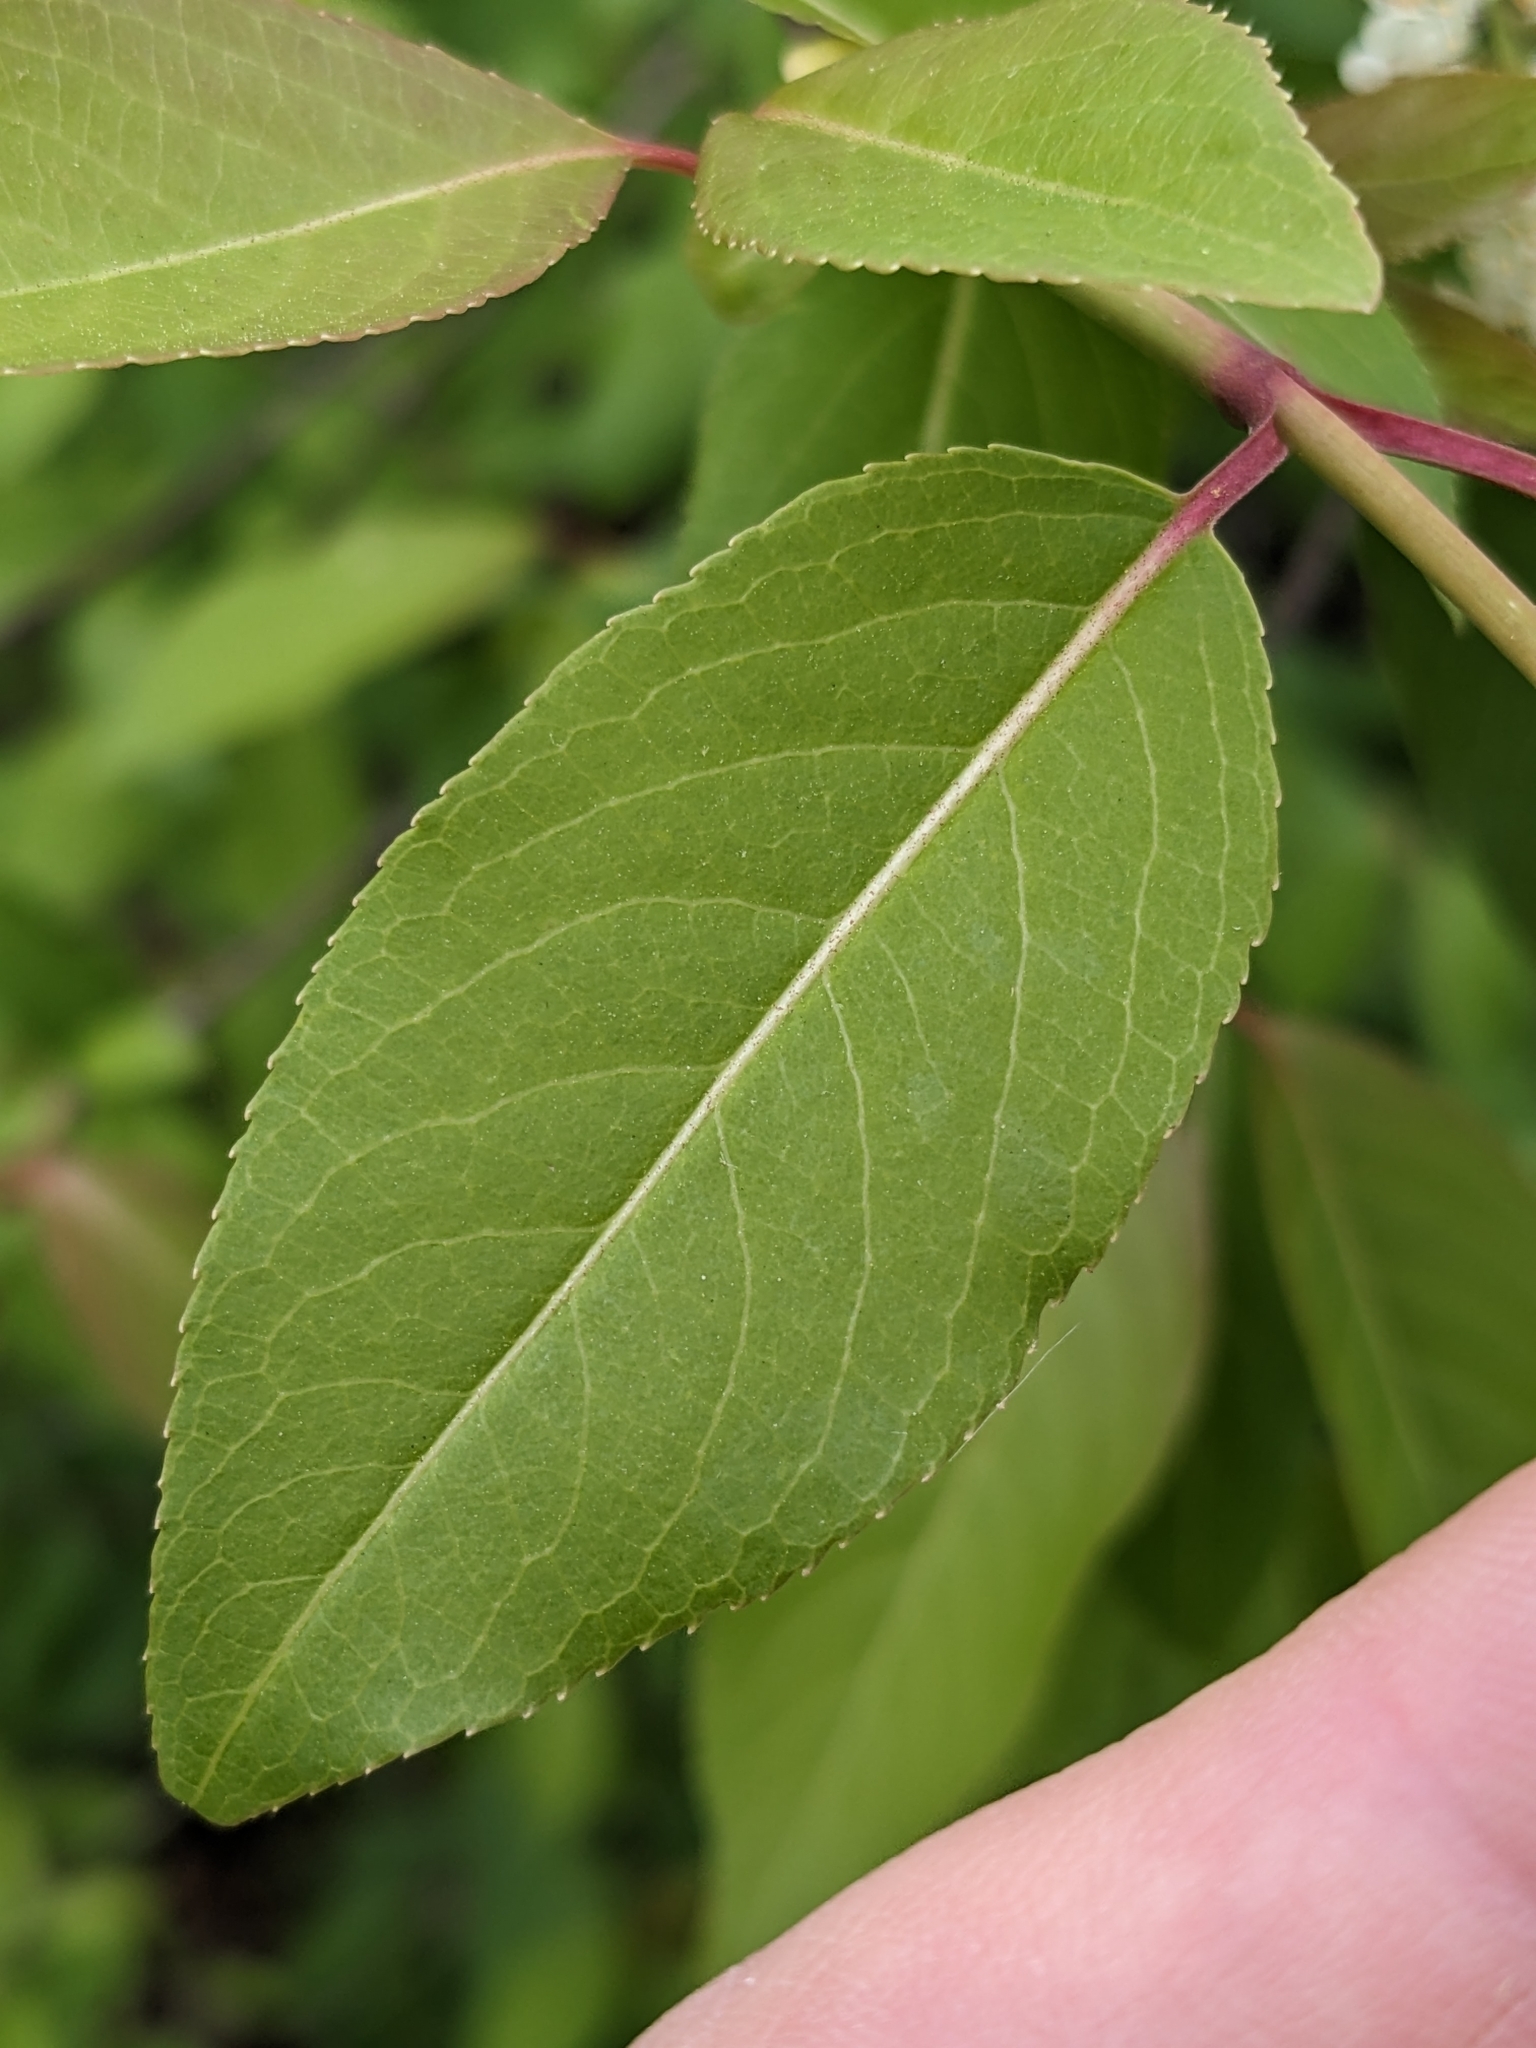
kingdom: Plantae
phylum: Tracheophyta
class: Magnoliopsida
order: Dipsacales
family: Viburnaceae
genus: Viburnum
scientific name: Viburnum prunifolium
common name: Black haw
